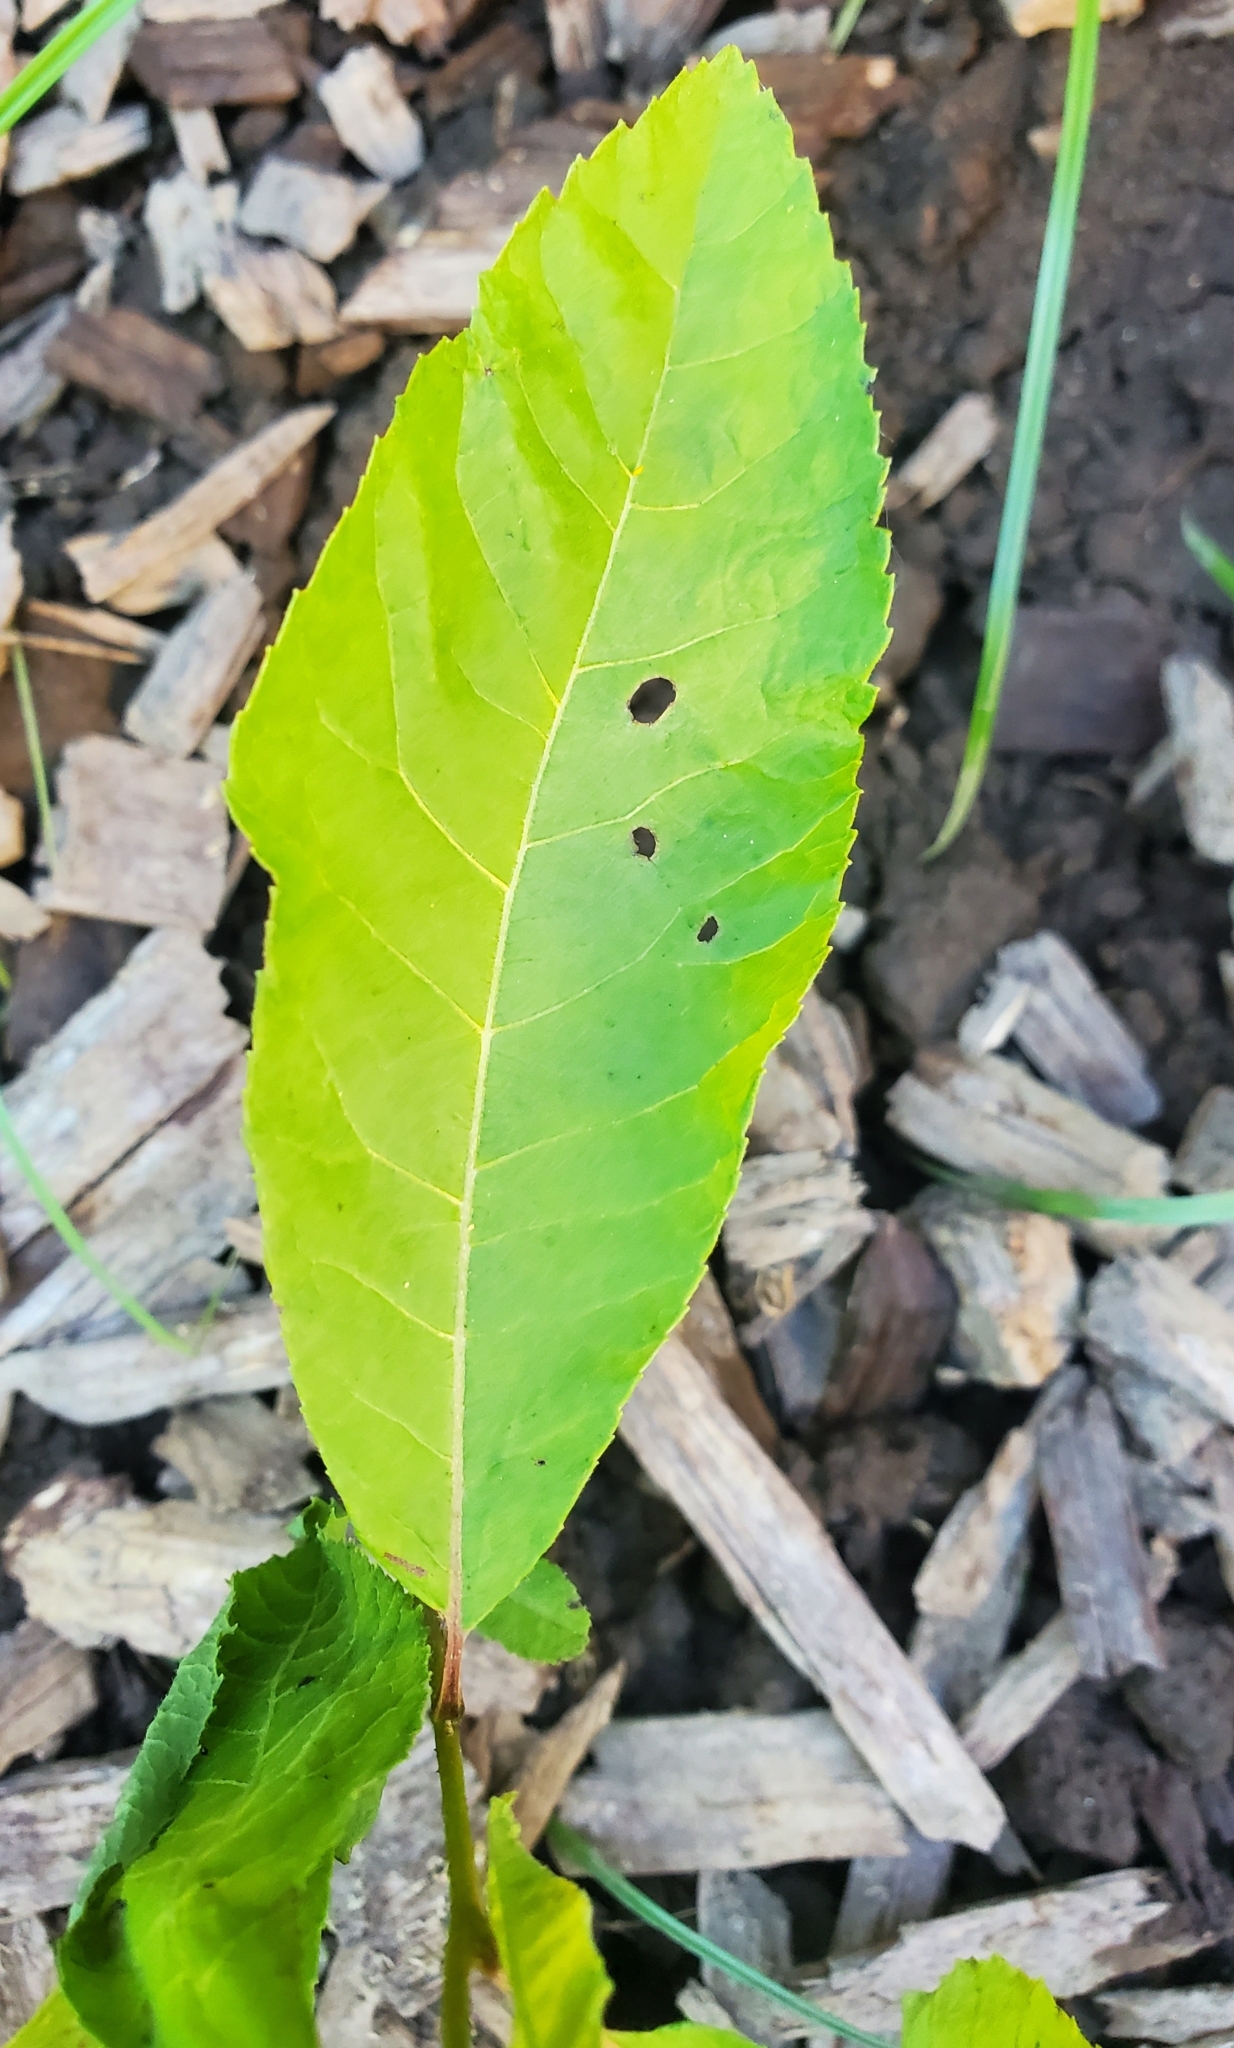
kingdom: Plantae
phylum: Tracheophyta
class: Magnoliopsida
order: Fagales
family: Juglandaceae
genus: Carya
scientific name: Carya illinoinensis
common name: Pecan
